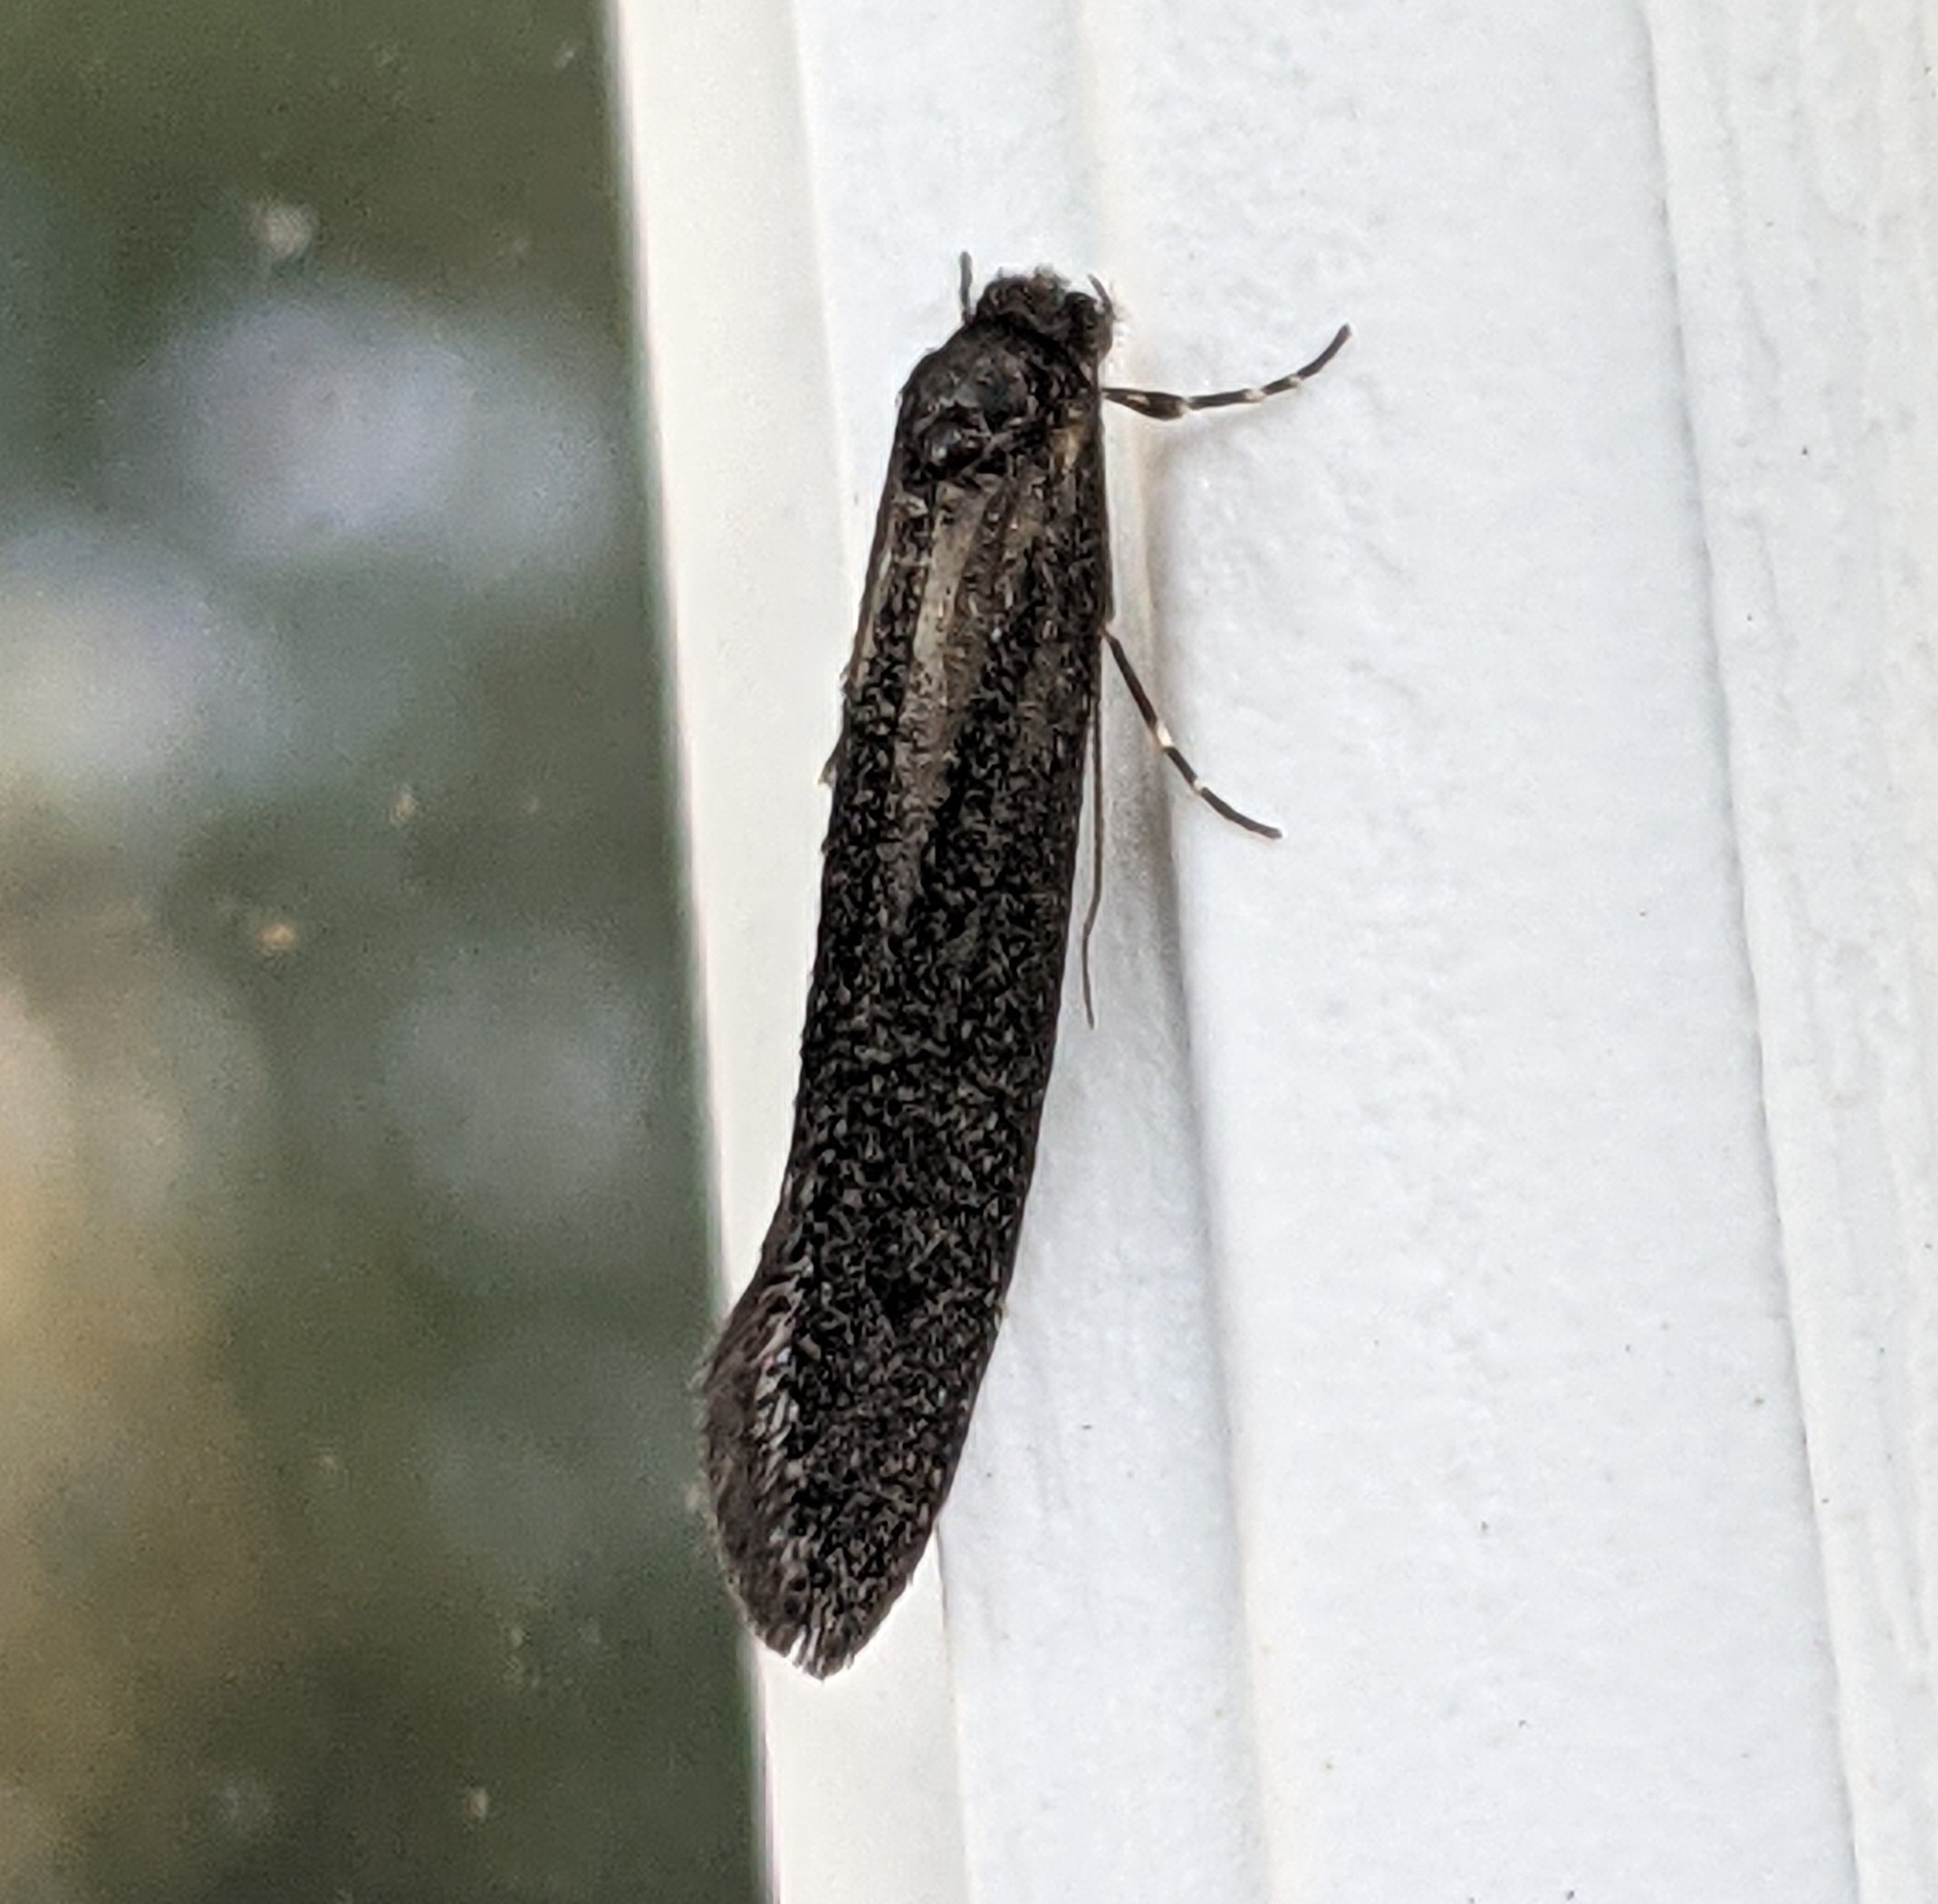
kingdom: Animalia
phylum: Arthropoda
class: Insecta
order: Lepidoptera
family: Tineidae
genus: Elatobia
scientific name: Elatobia montelliella
